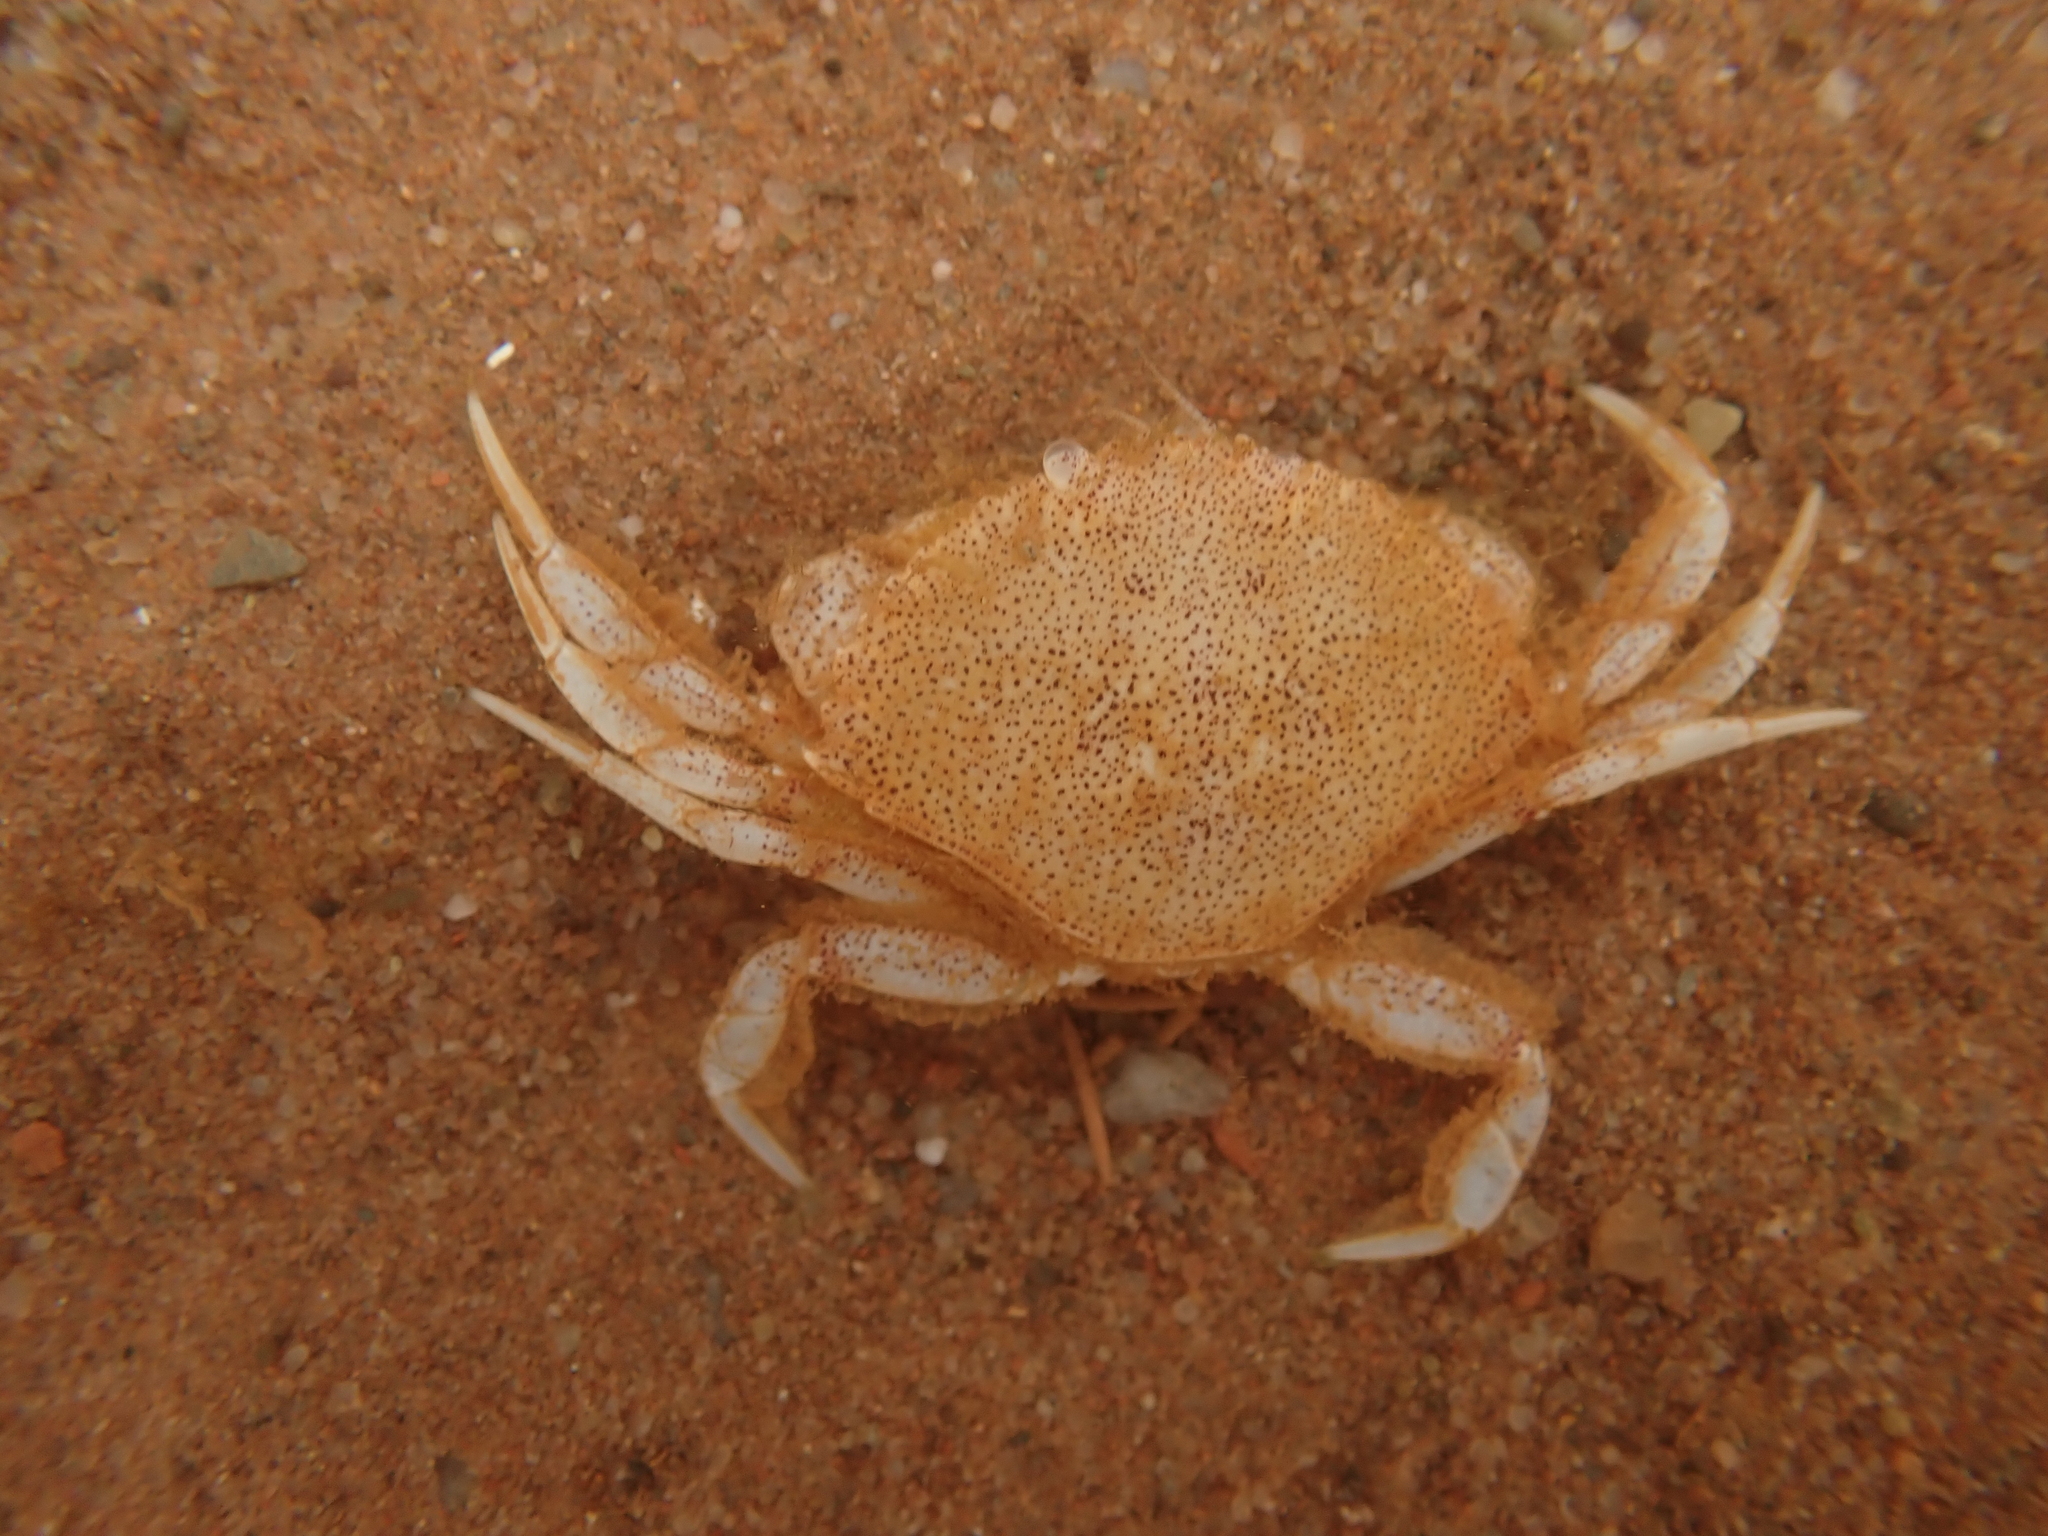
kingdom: Animalia
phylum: Arthropoda
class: Malacostraca
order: Decapoda
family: Cancridae
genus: Cancer
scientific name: Cancer irroratus
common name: Atlantic rock crab
